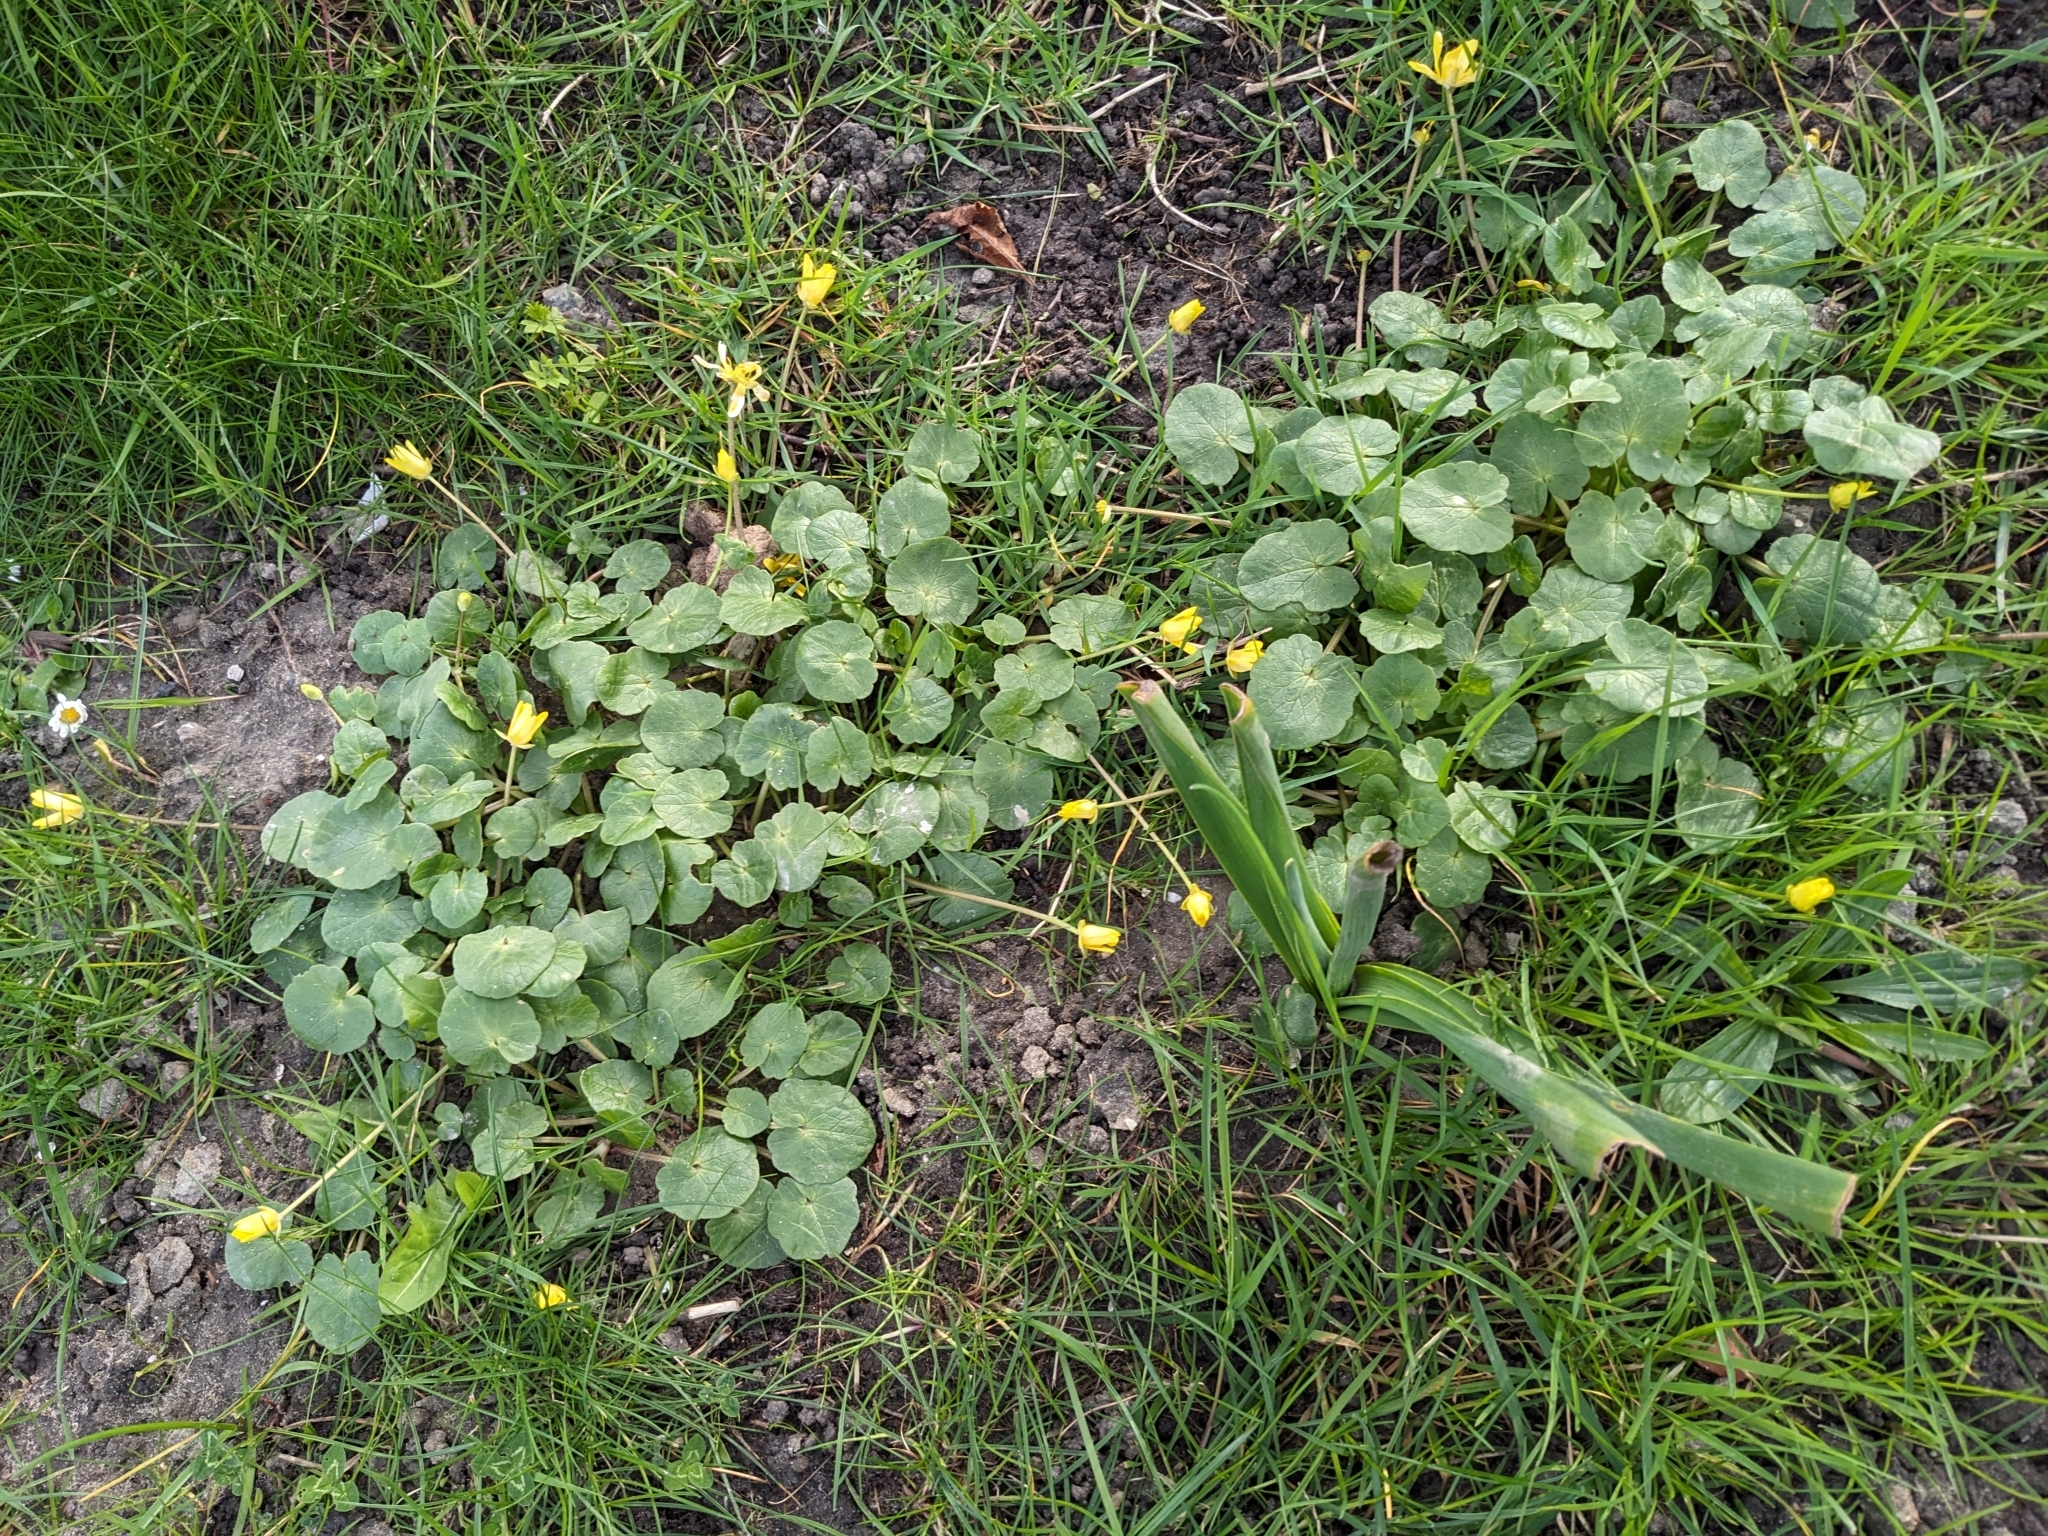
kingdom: Plantae
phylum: Tracheophyta
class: Magnoliopsida
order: Ranunculales
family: Ranunculaceae
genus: Ficaria
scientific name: Ficaria verna
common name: Lesser celandine
